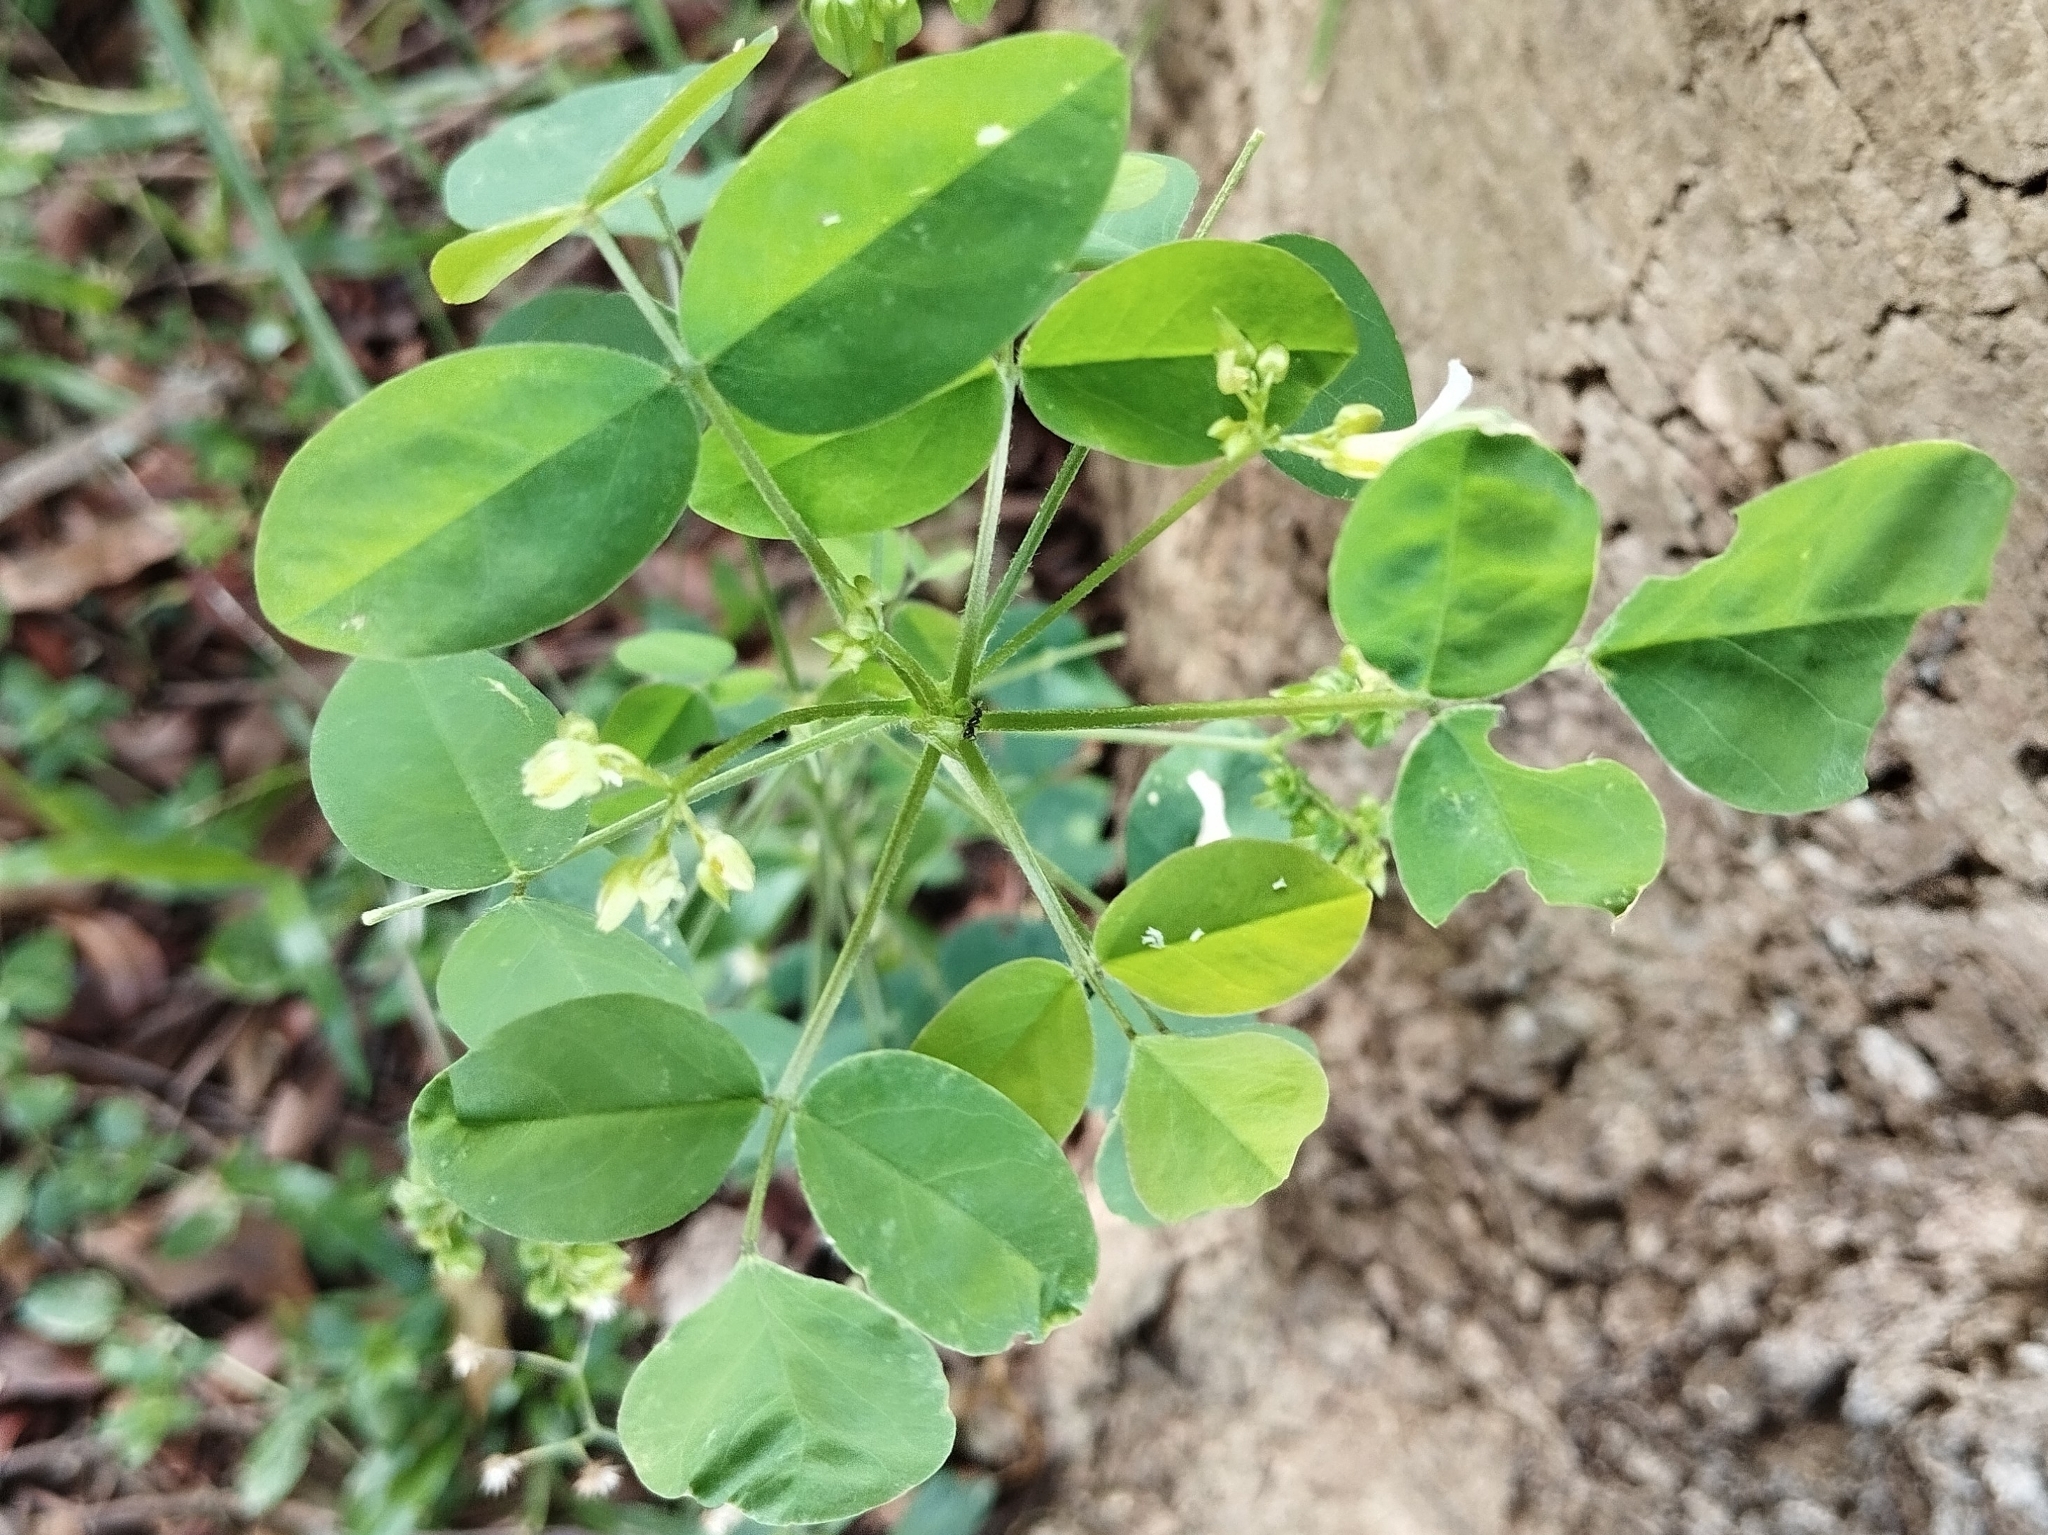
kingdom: Plantae
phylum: Tracheophyta
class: Magnoliopsida
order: Oxalidales
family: Oxalidaceae
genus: Oxalis
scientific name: Oxalis barrelieri
